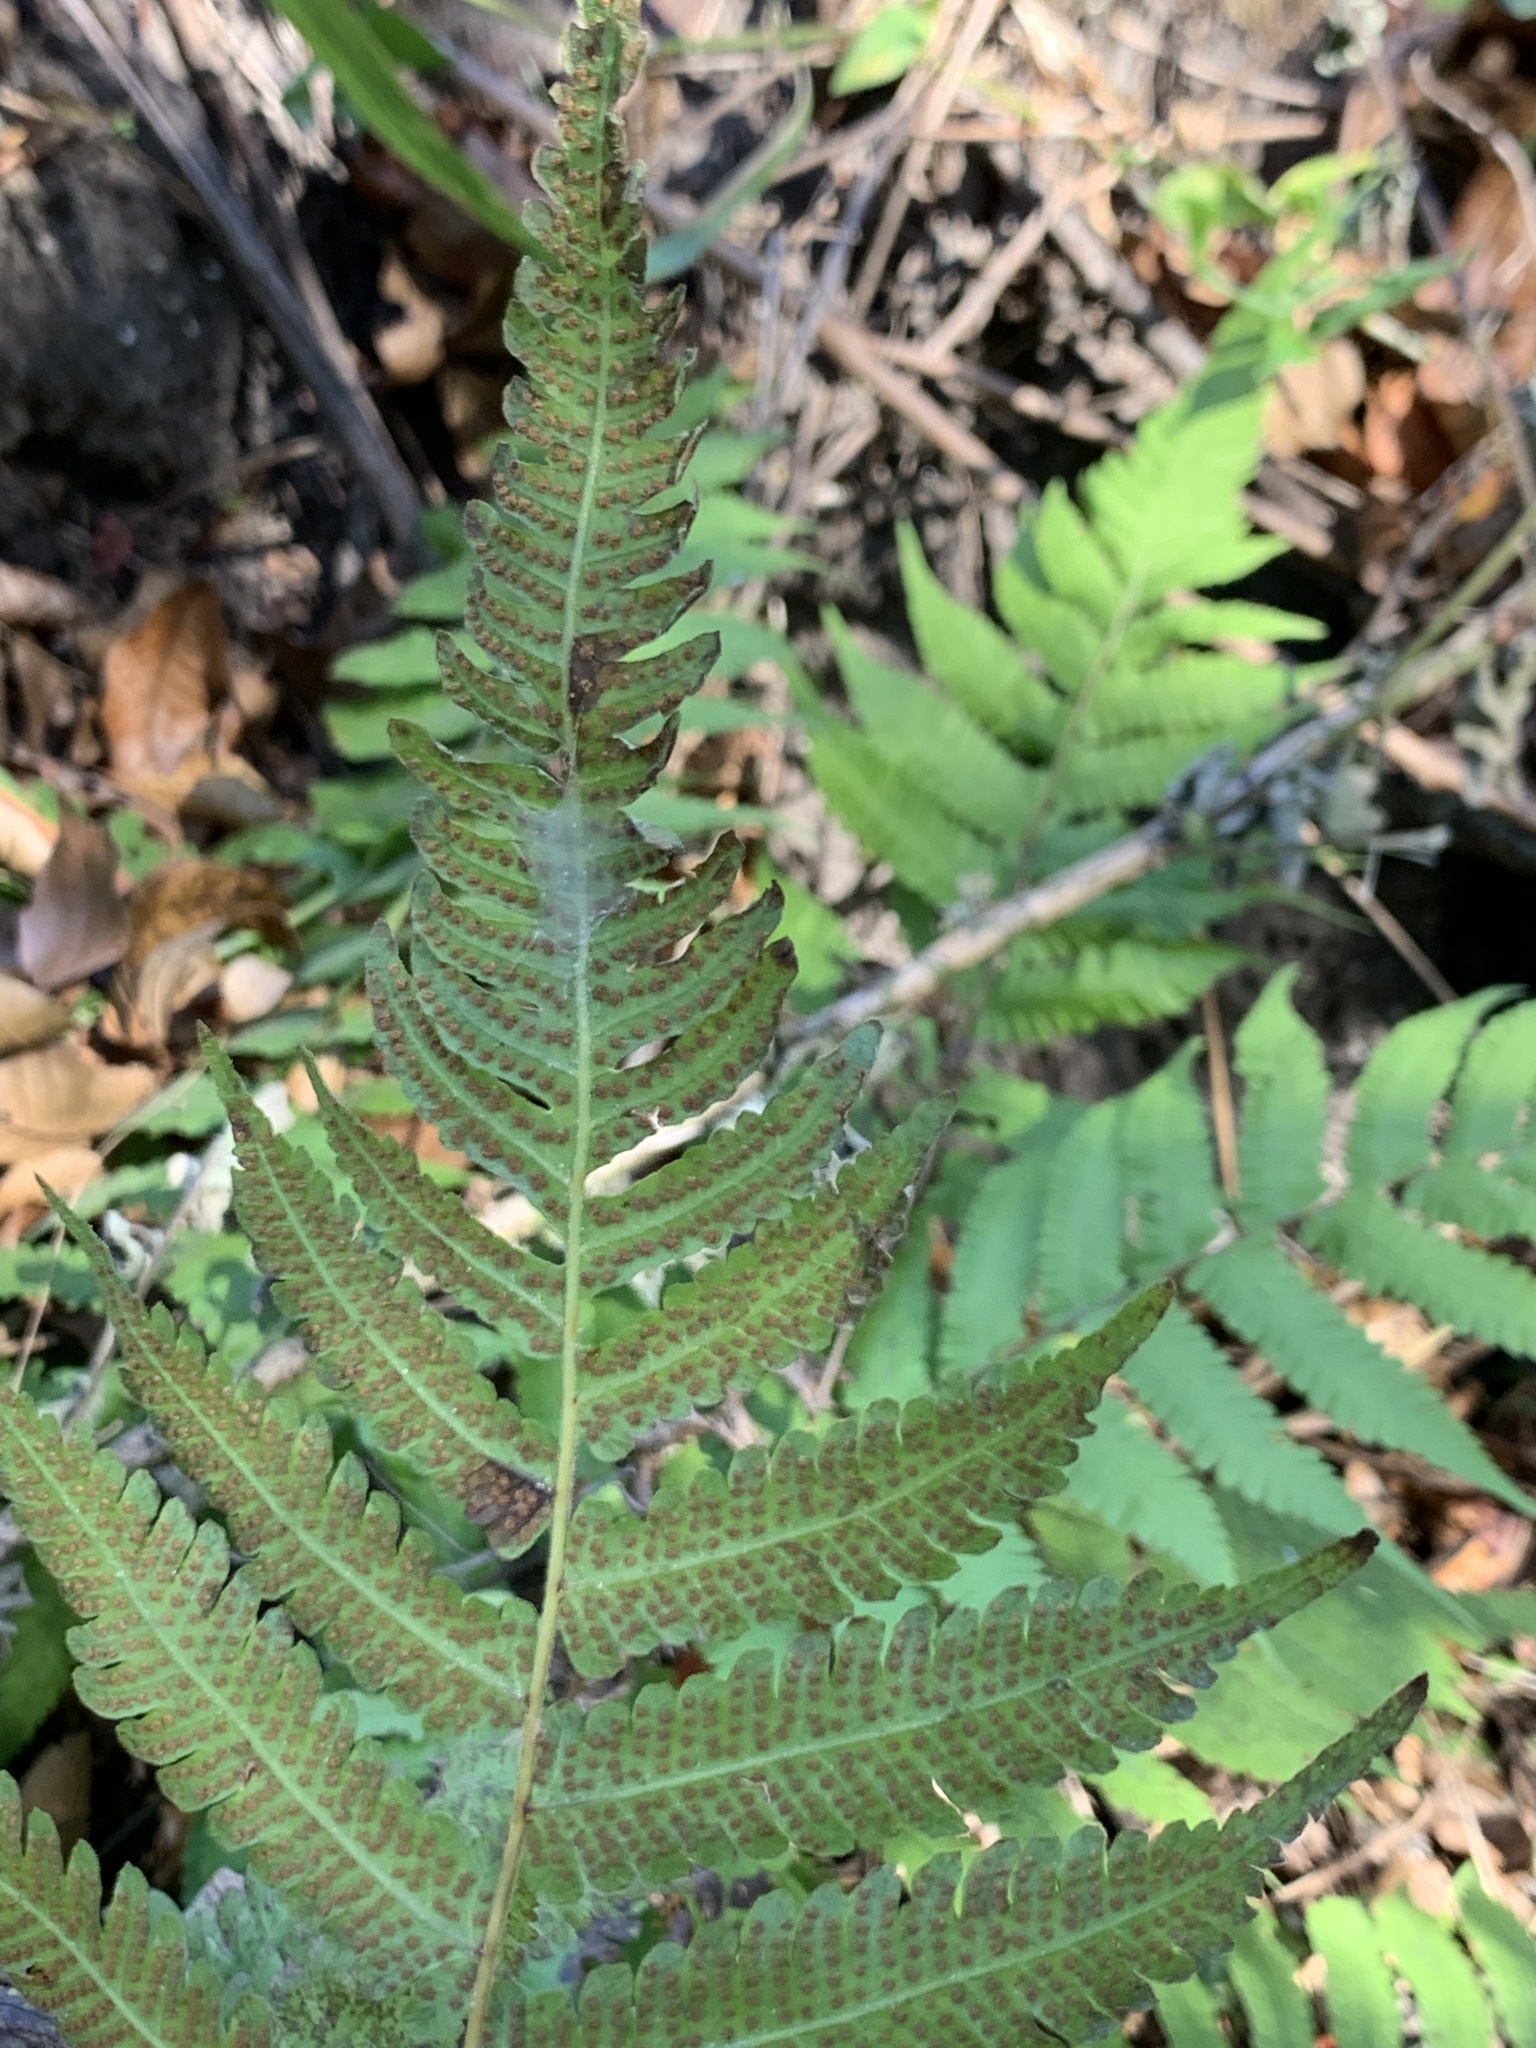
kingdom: Plantae
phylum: Tracheophyta
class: Polypodiopsida
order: Polypodiales
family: Thelypteridaceae
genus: Christella
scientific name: Christella dentata
